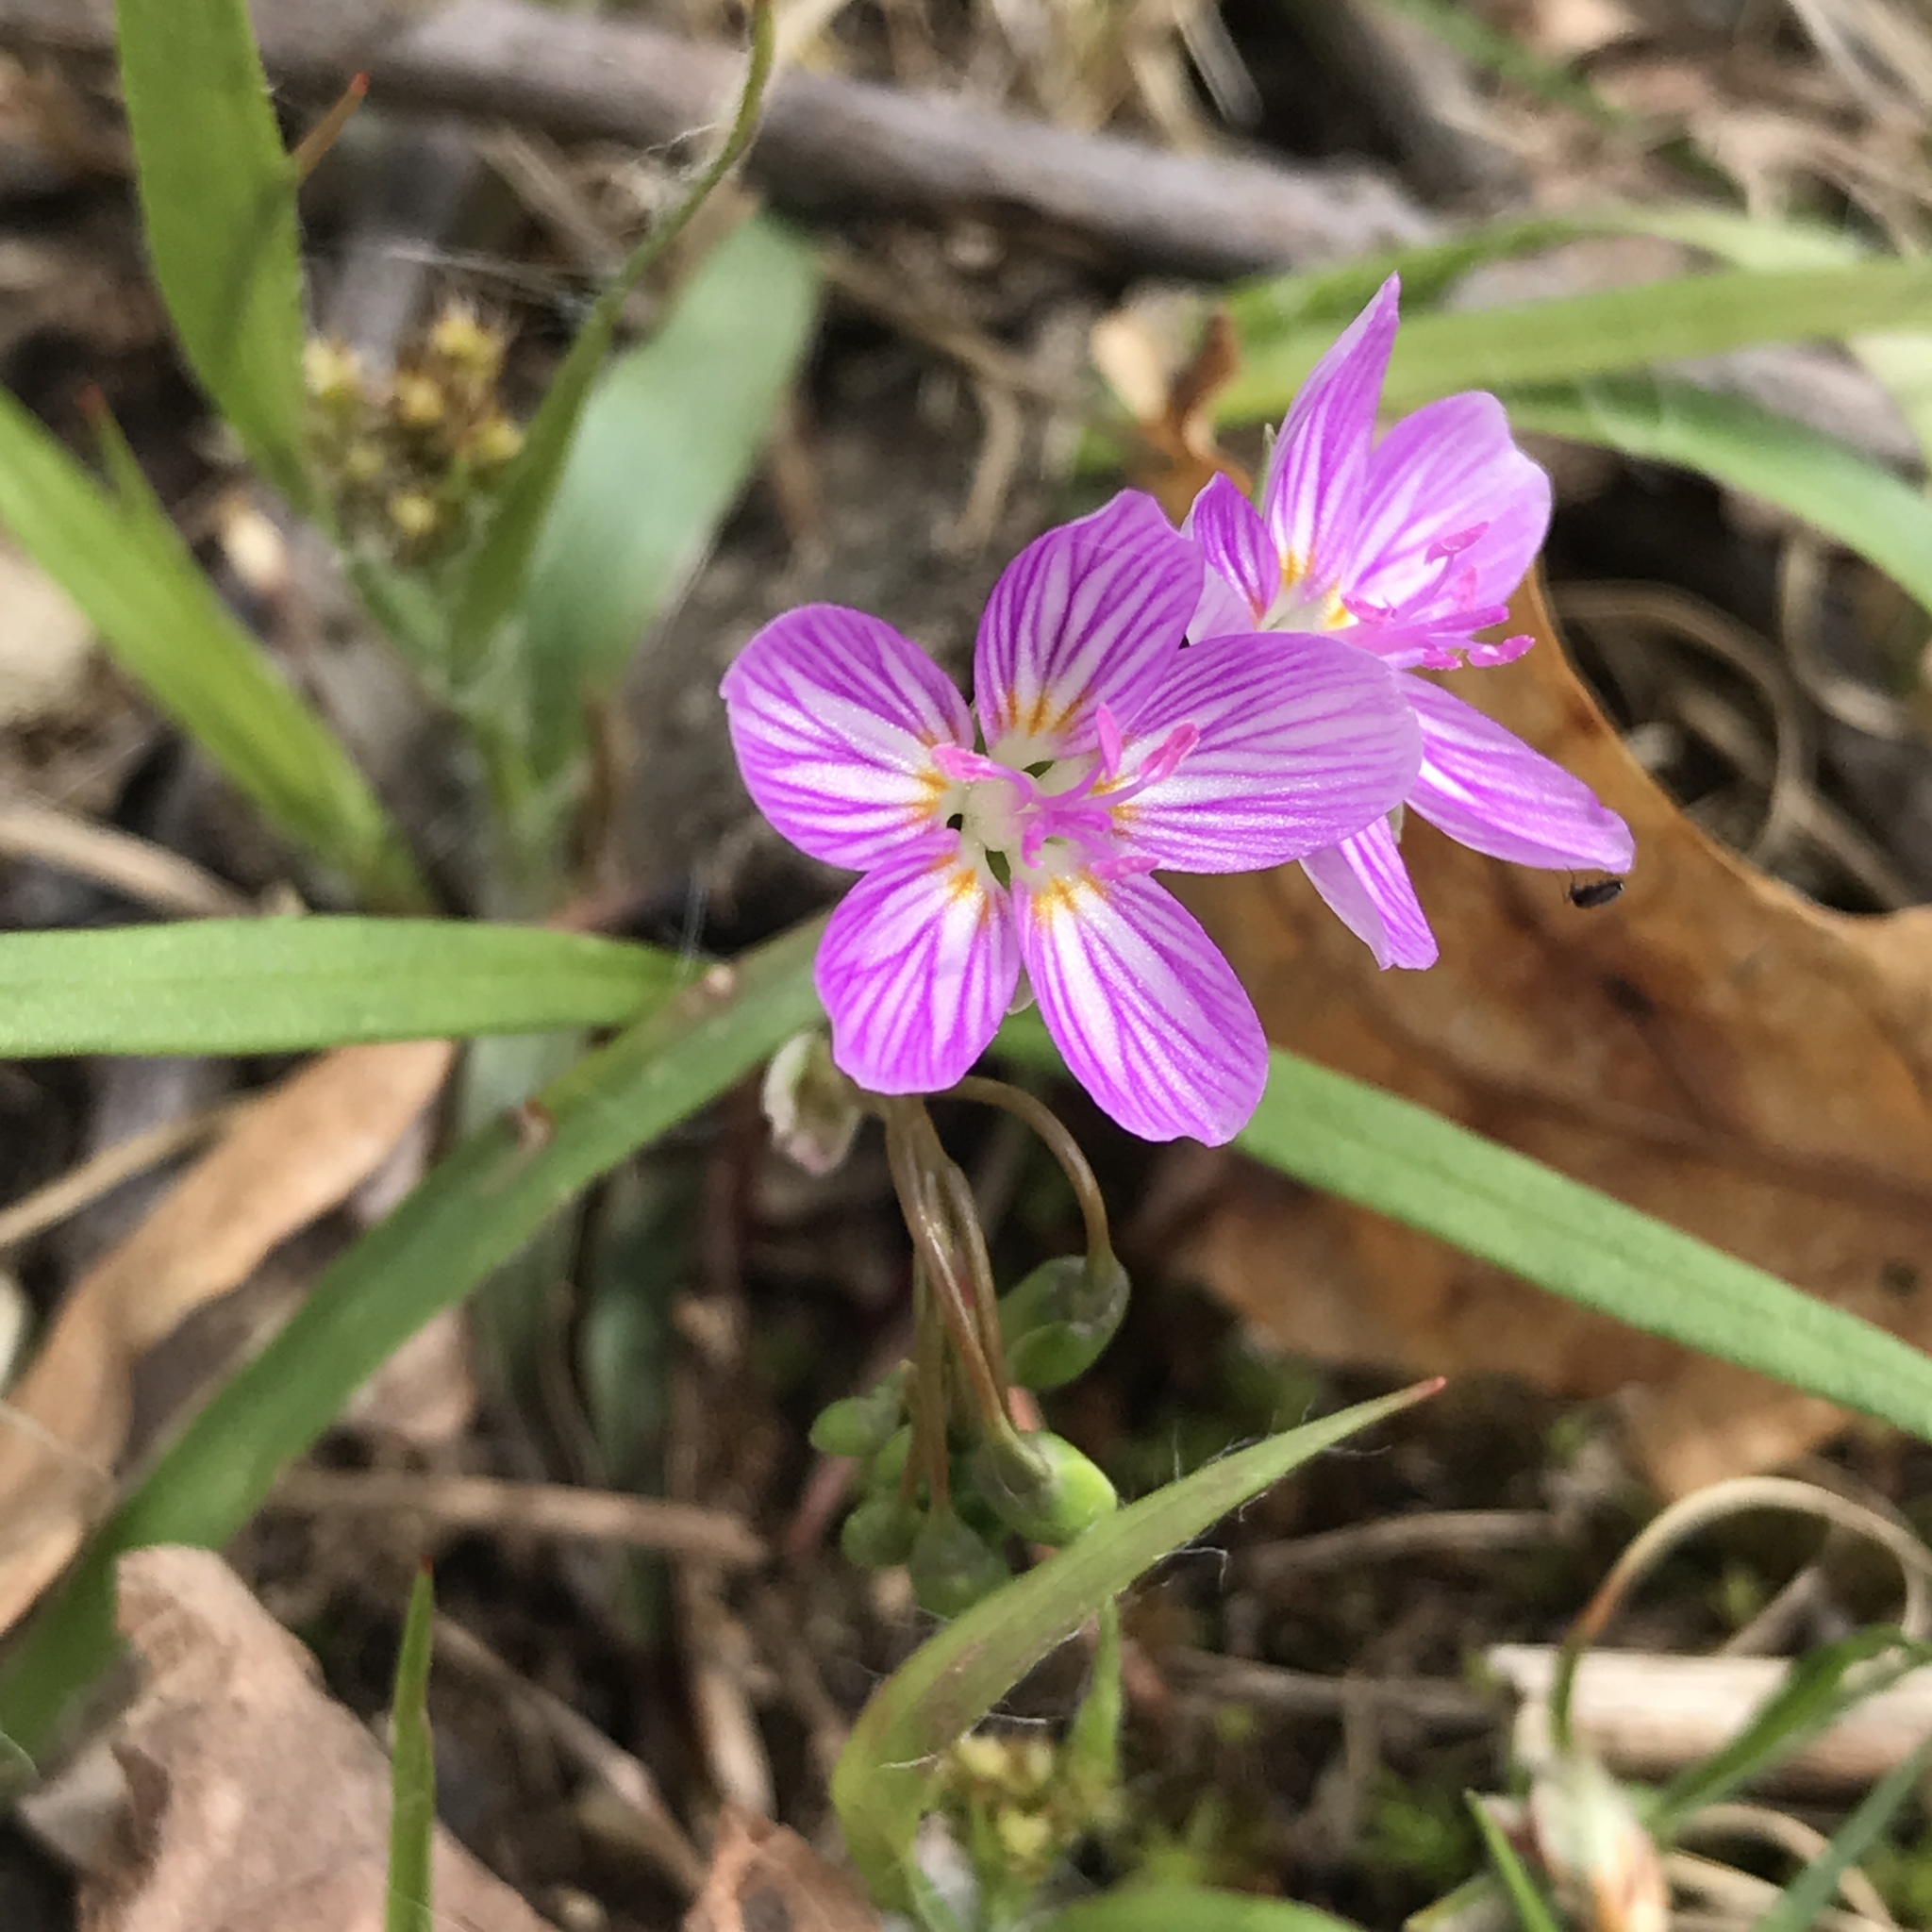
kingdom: Plantae
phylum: Tracheophyta
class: Magnoliopsida
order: Caryophyllales
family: Montiaceae
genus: Claytonia
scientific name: Claytonia virginica
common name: Virginia springbeauty
